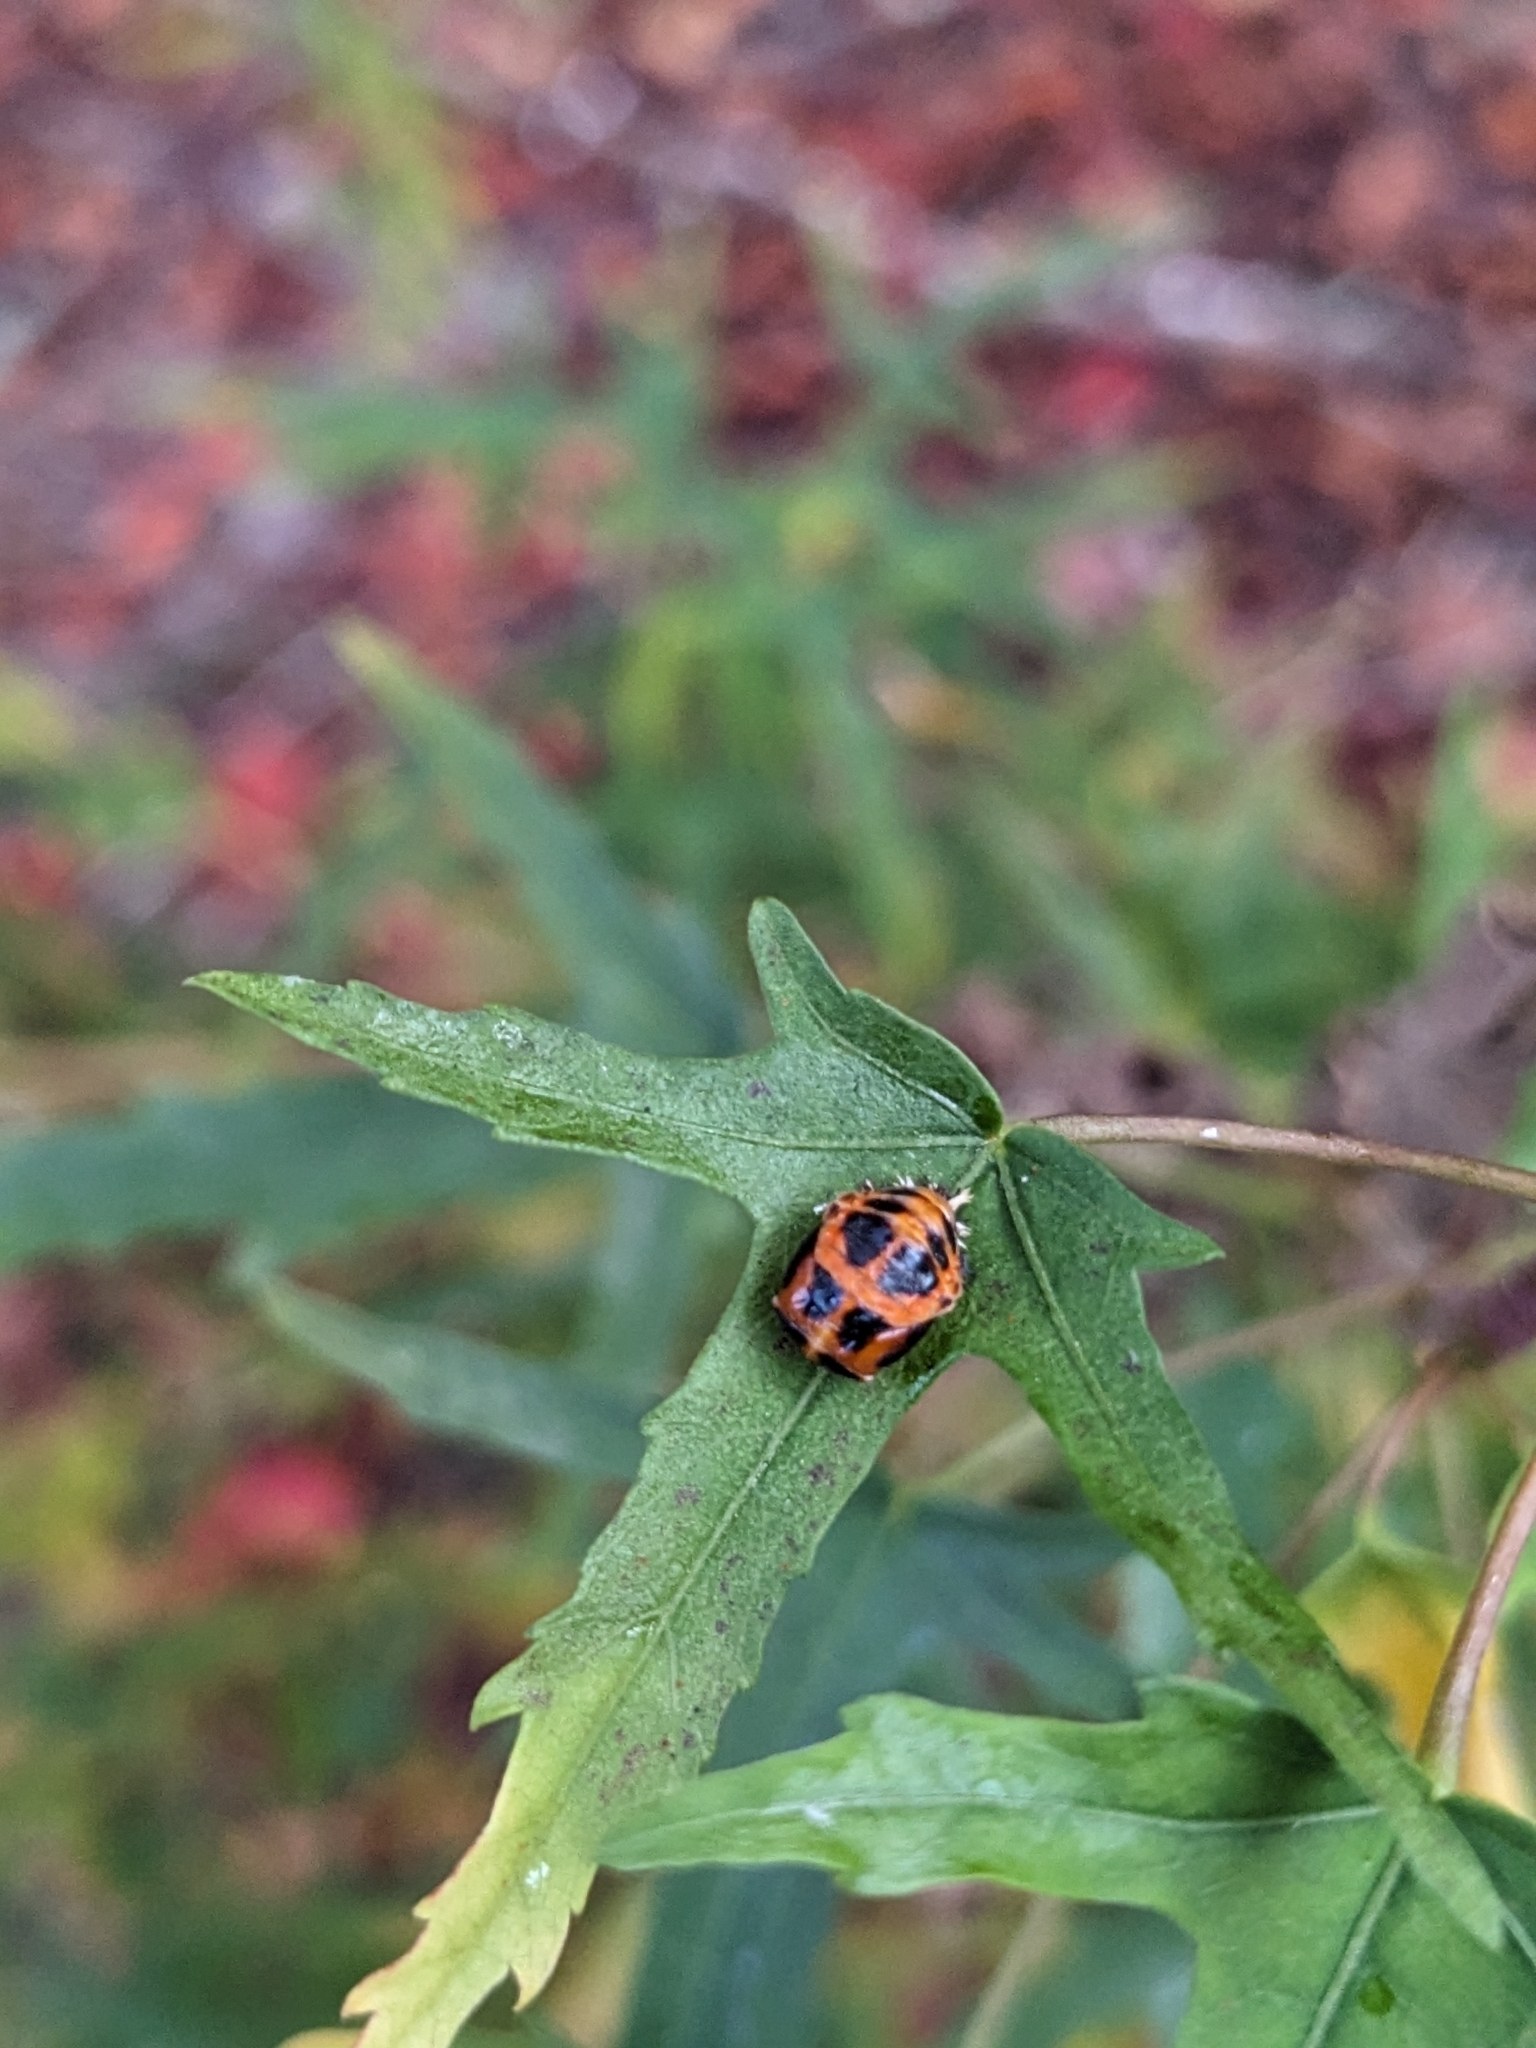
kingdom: Animalia
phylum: Arthropoda
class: Insecta
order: Coleoptera
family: Coccinellidae
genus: Harmonia
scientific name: Harmonia axyridis
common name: Harlequin ladybird
